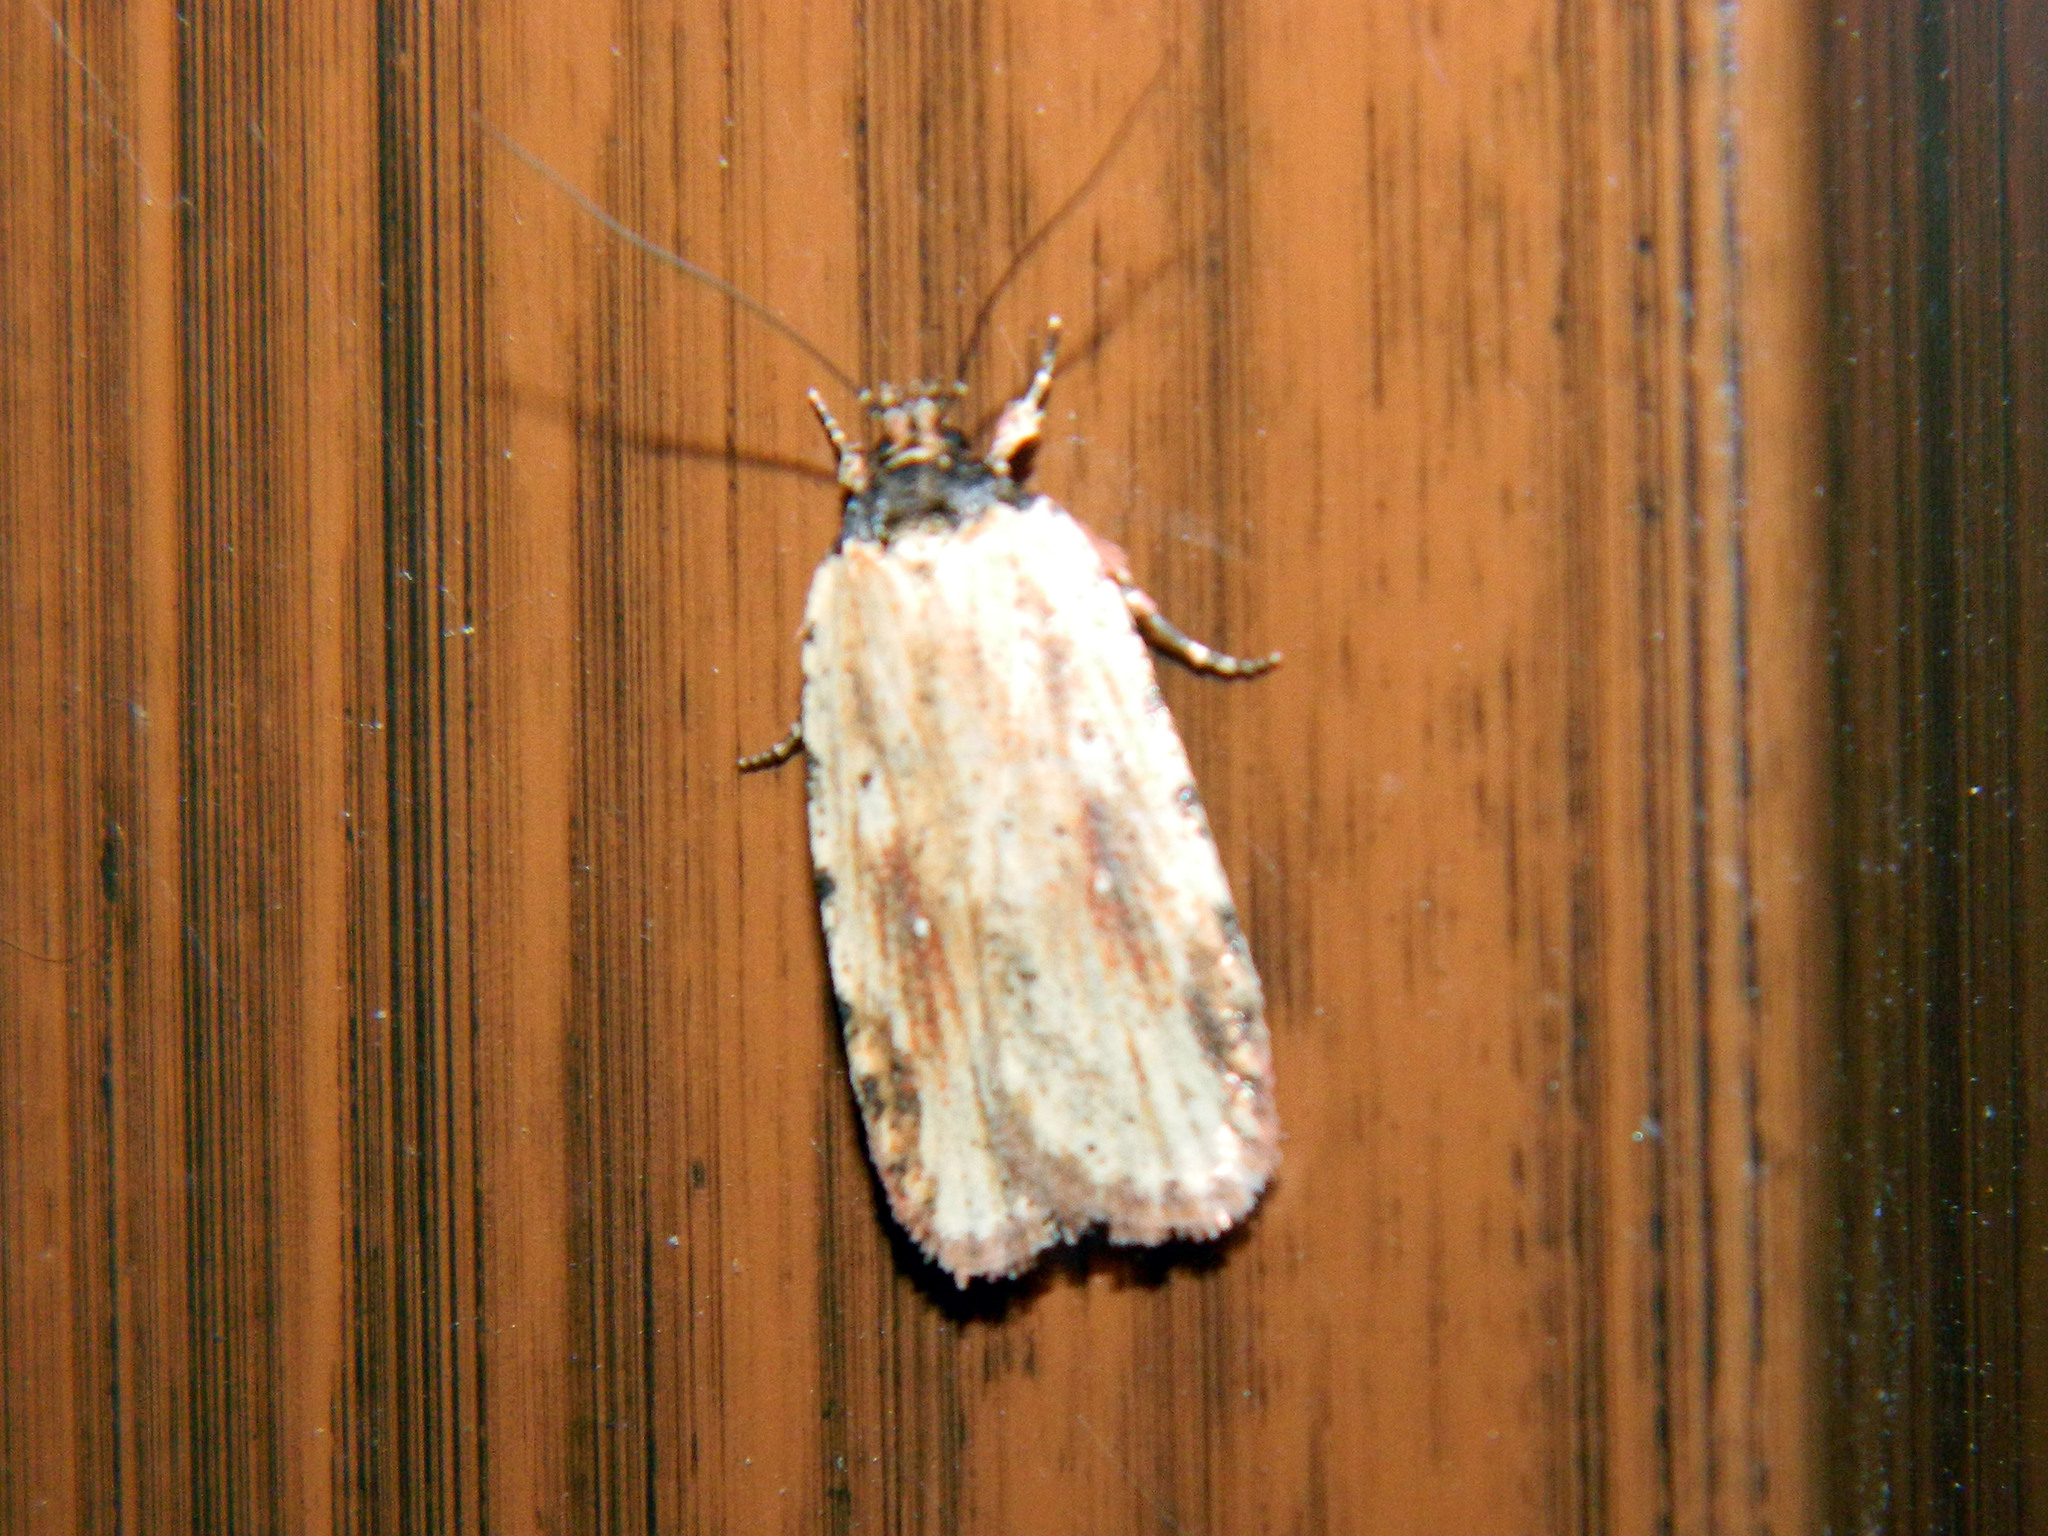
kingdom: Animalia
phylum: Arthropoda
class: Insecta
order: Lepidoptera
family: Depressariidae
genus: Agonopterix
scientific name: Agonopterix atrodorsella
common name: Beggartick leaffolder
